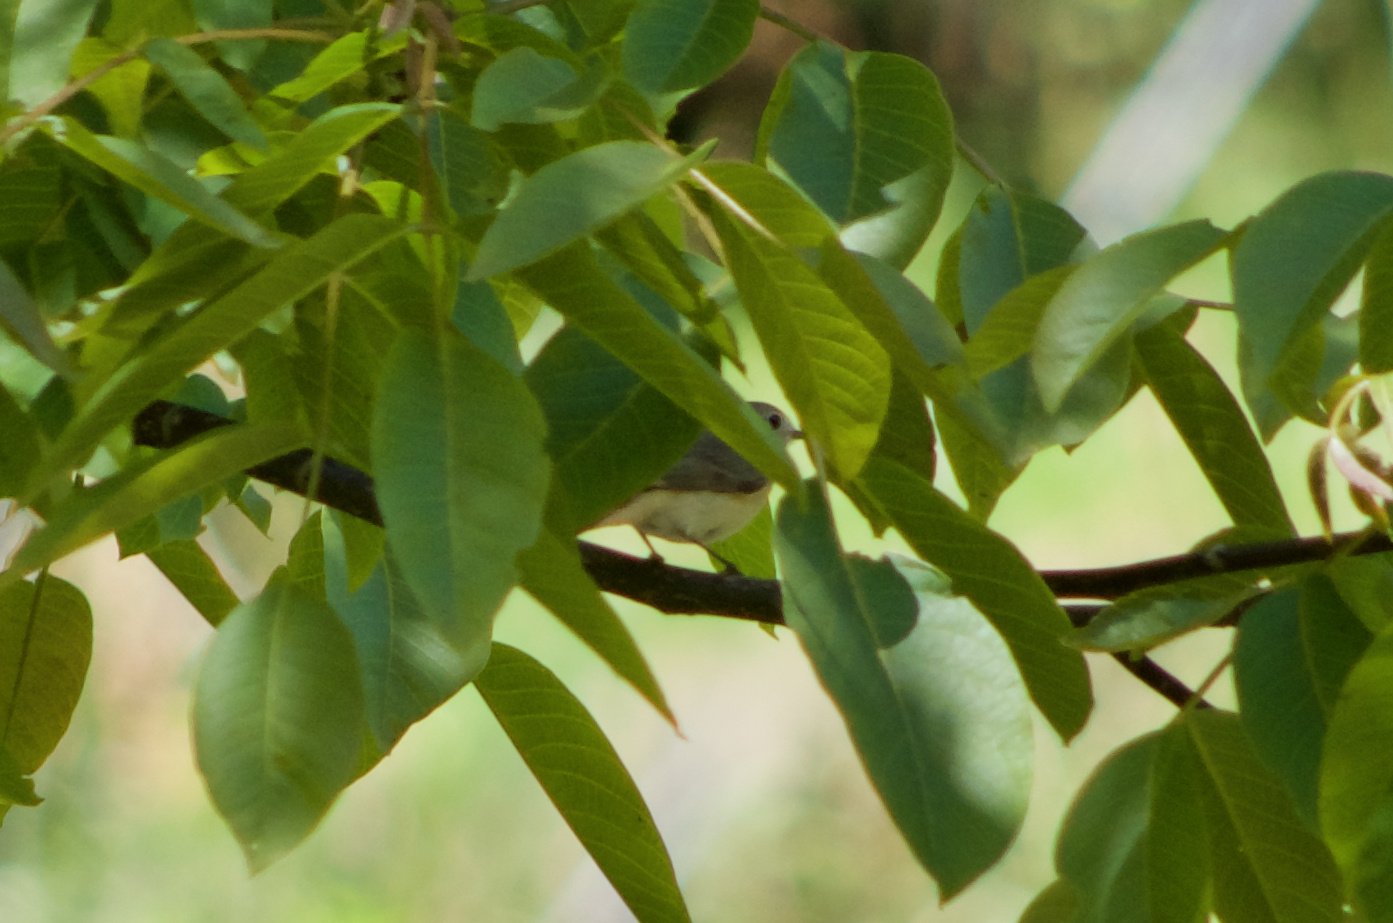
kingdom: Animalia
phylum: Chordata
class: Aves
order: Passeriformes
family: Muscicapidae
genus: Phoenicurus
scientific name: Phoenicurus phoenicurus
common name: Common redstart
